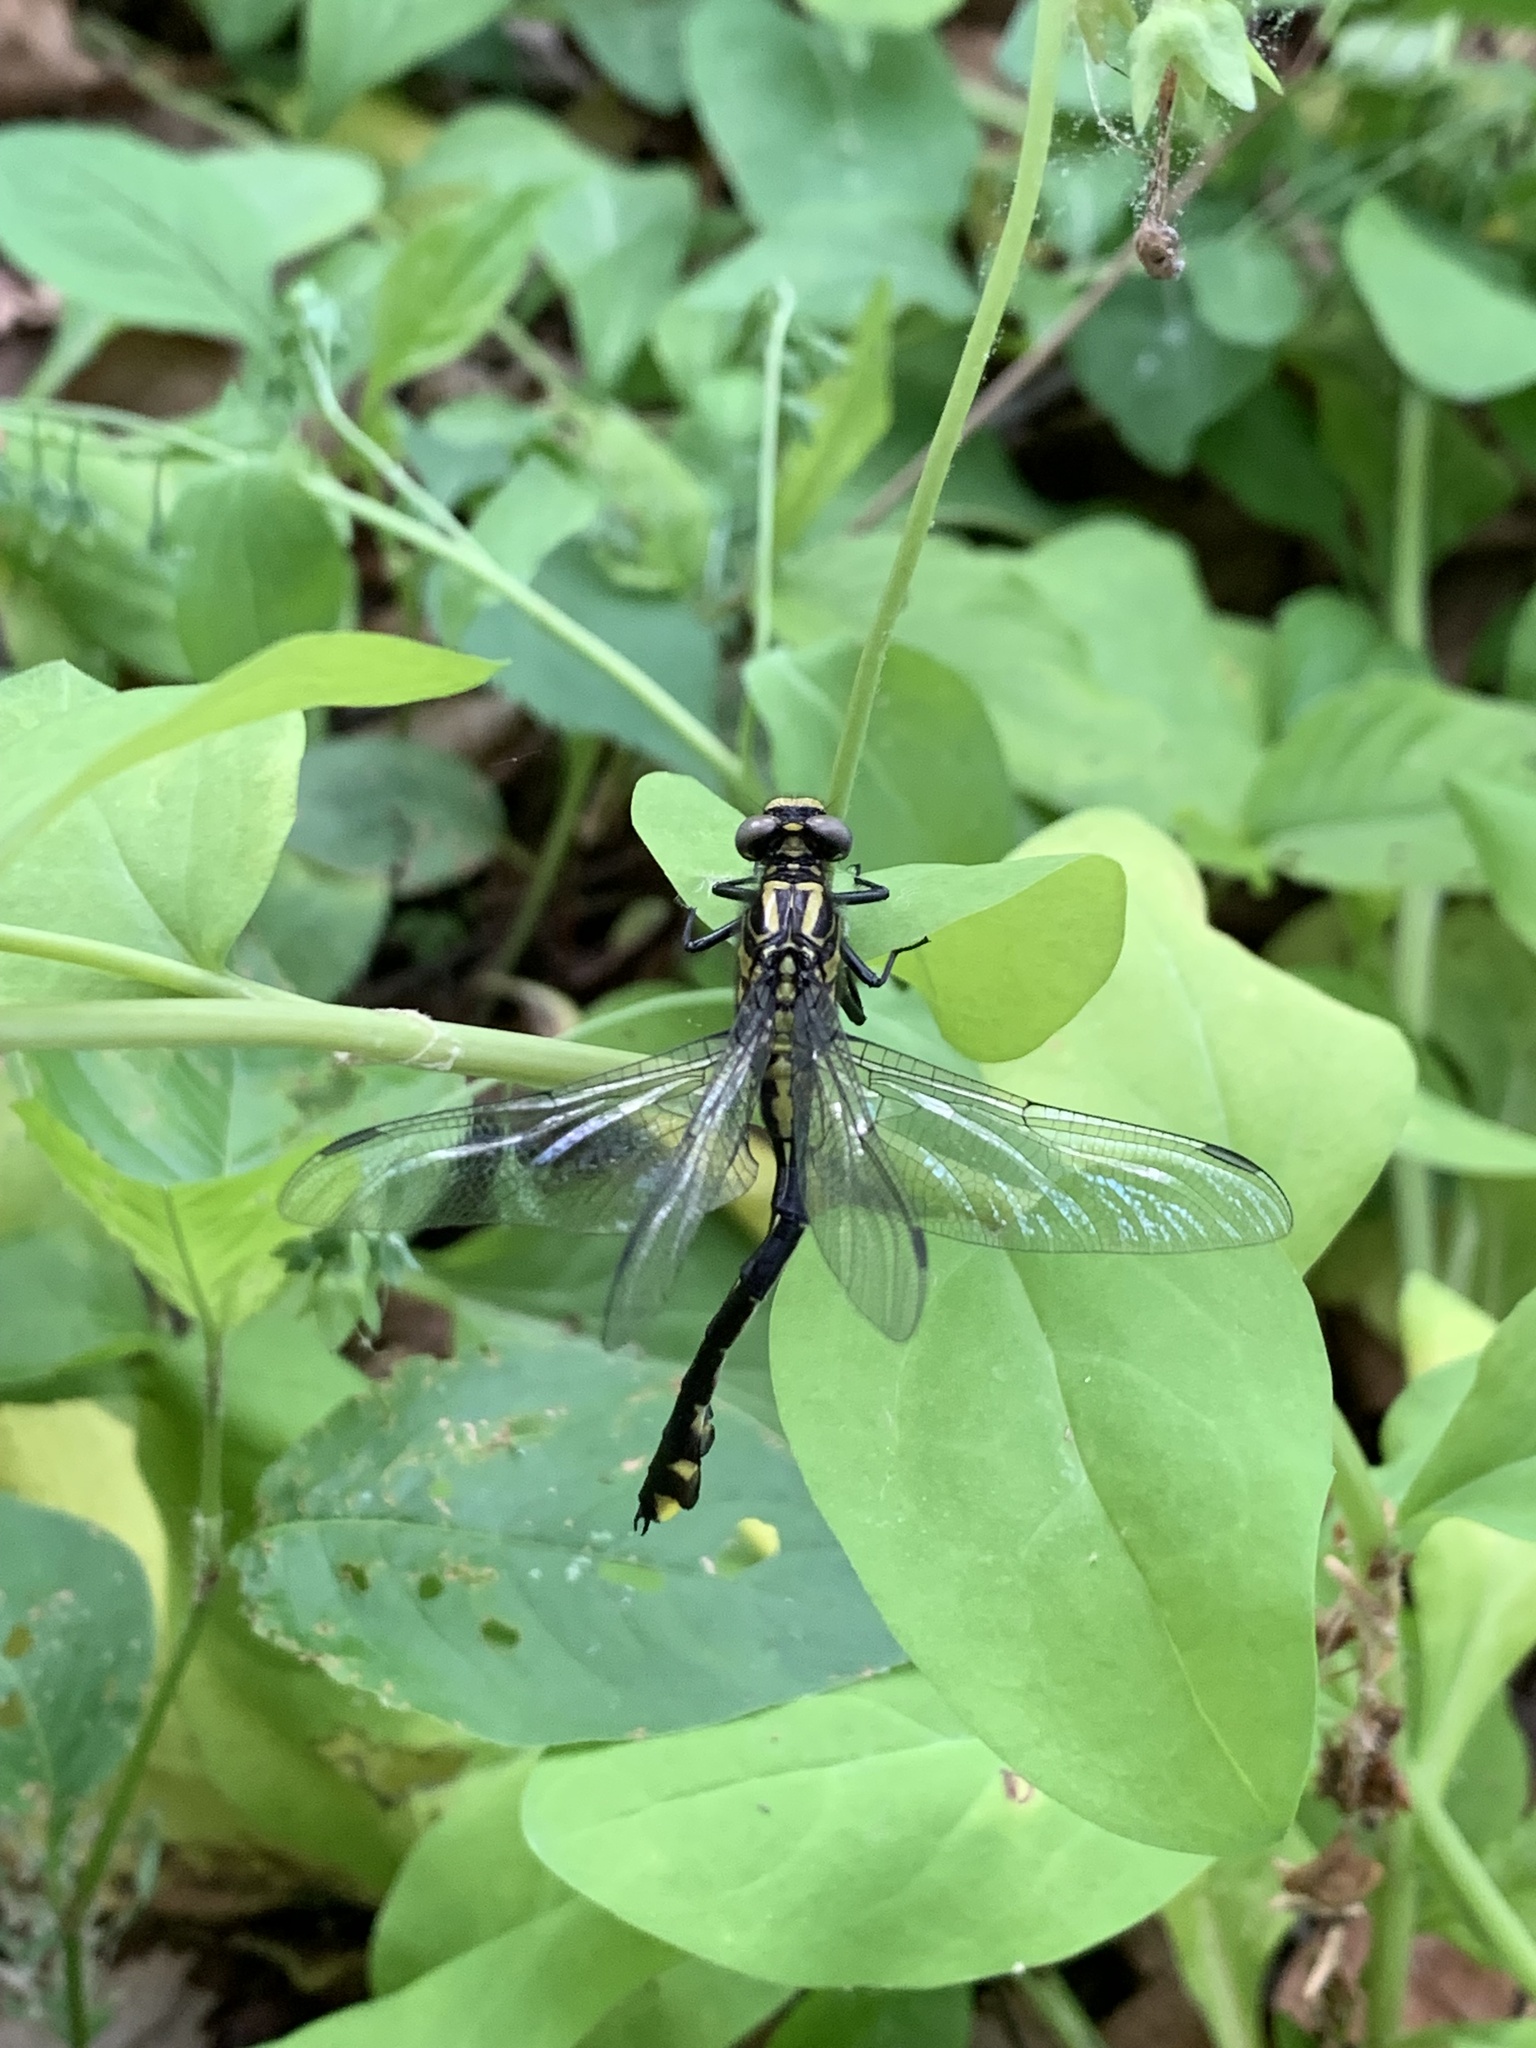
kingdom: Animalia
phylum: Arthropoda
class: Insecta
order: Odonata
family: Gomphidae
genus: Gomphurus
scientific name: Gomphurus vastus
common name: Cobra clubtail
